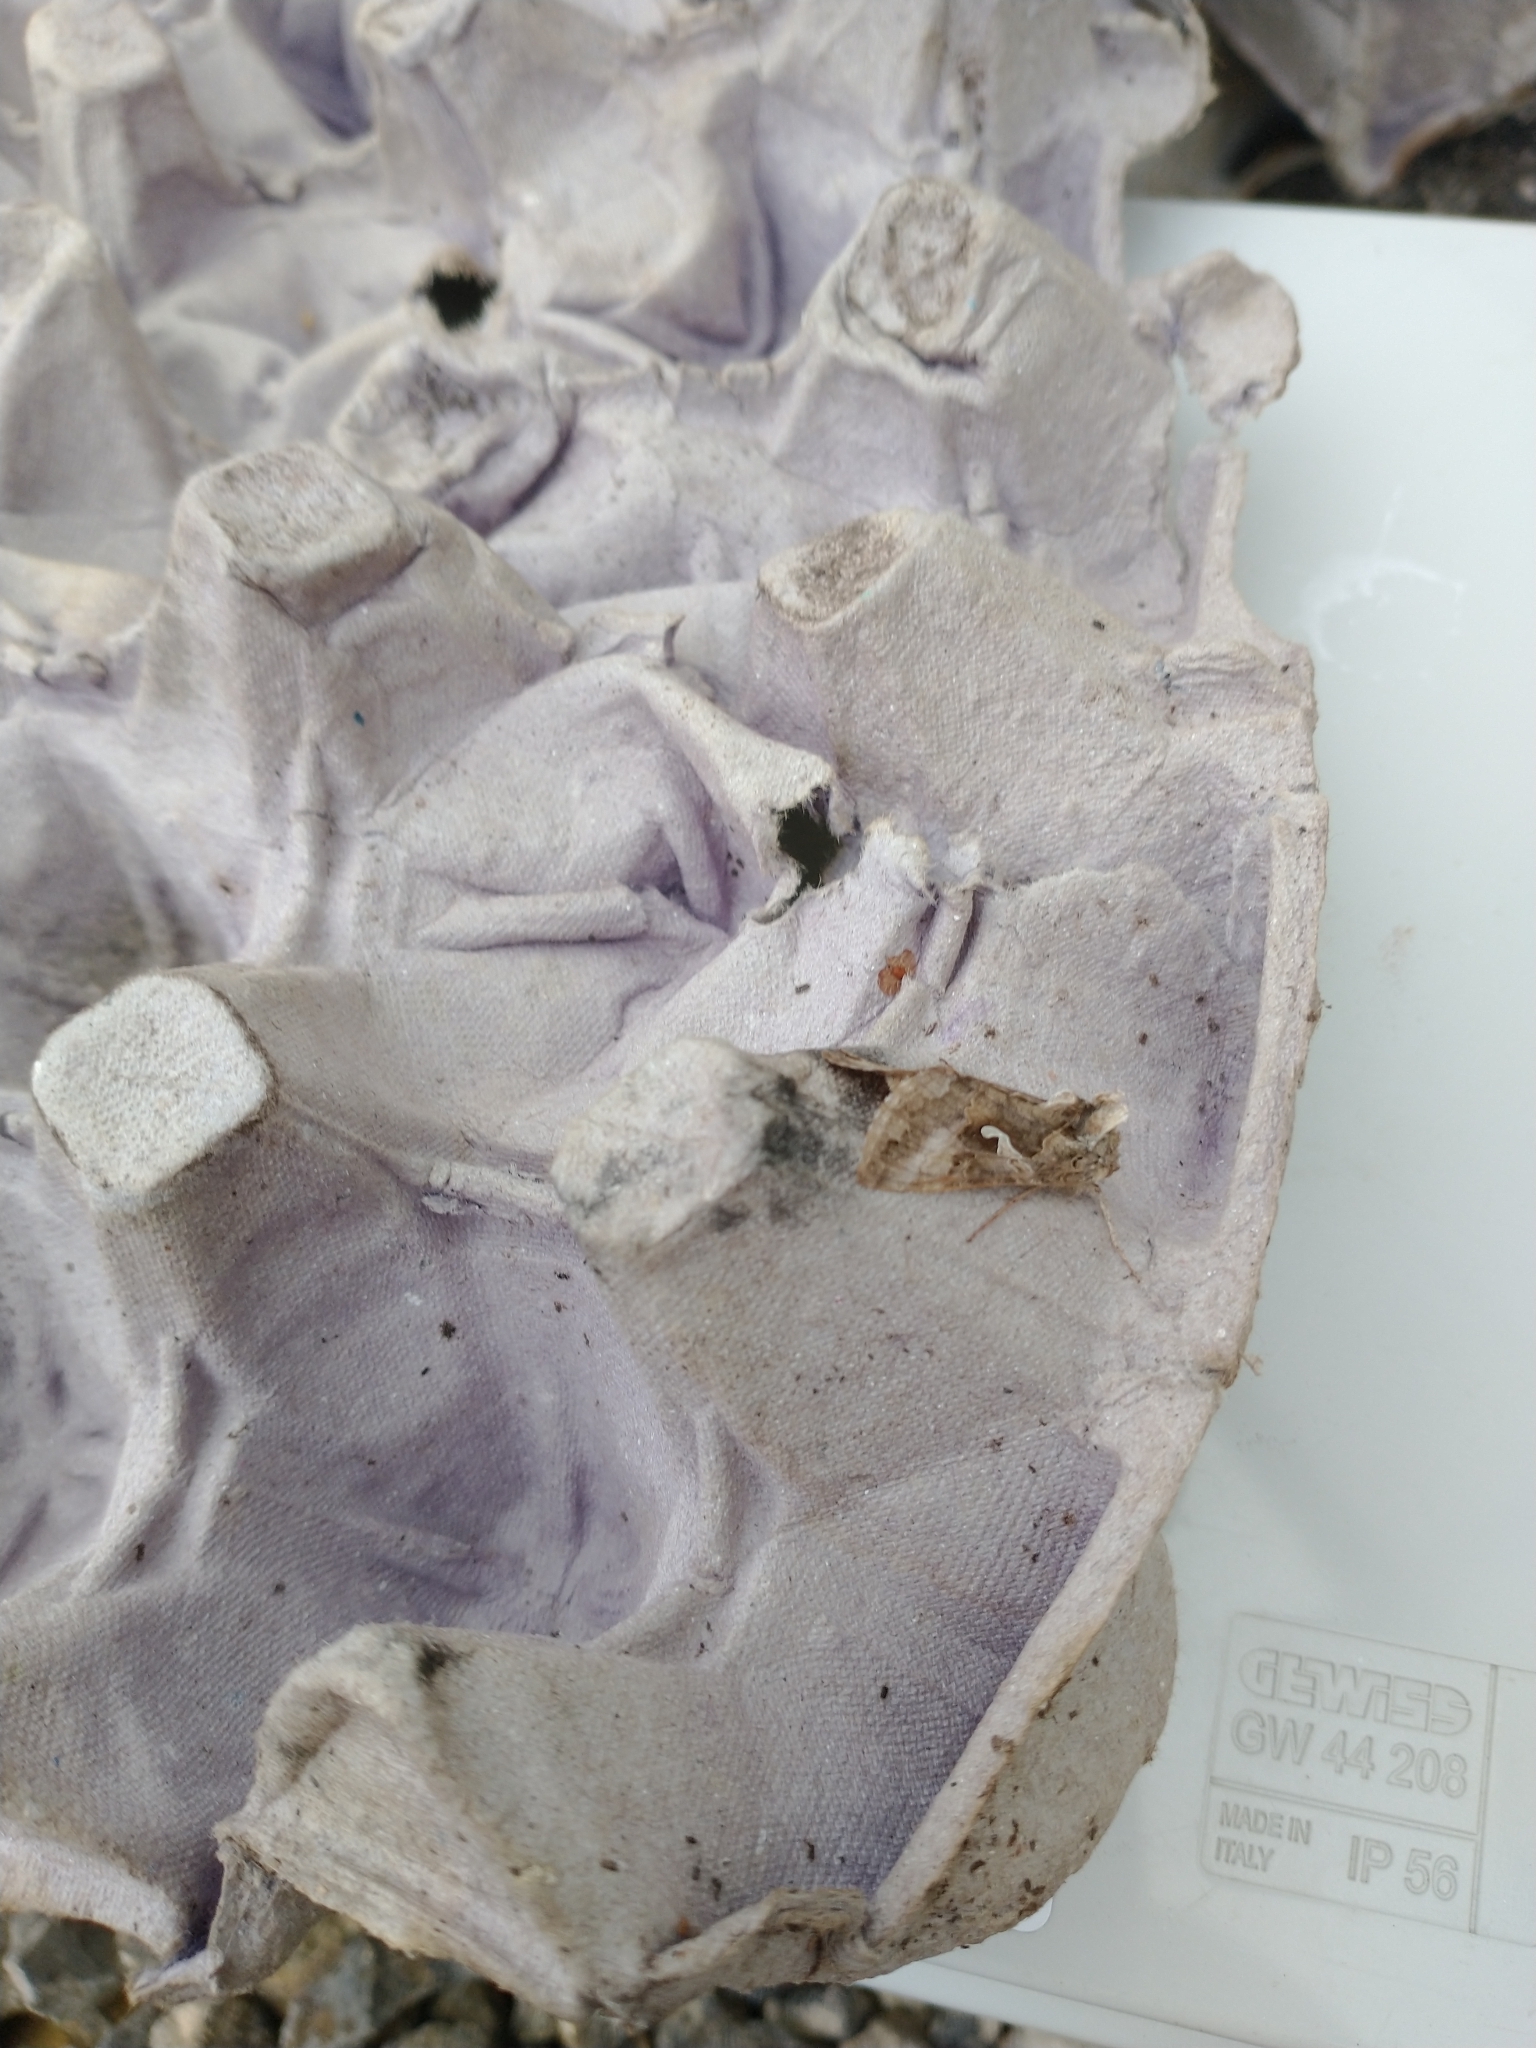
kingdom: Animalia
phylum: Arthropoda
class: Insecta
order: Lepidoptera
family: Noctuidae
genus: Autographa
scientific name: Autographa gamma
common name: Silver y
